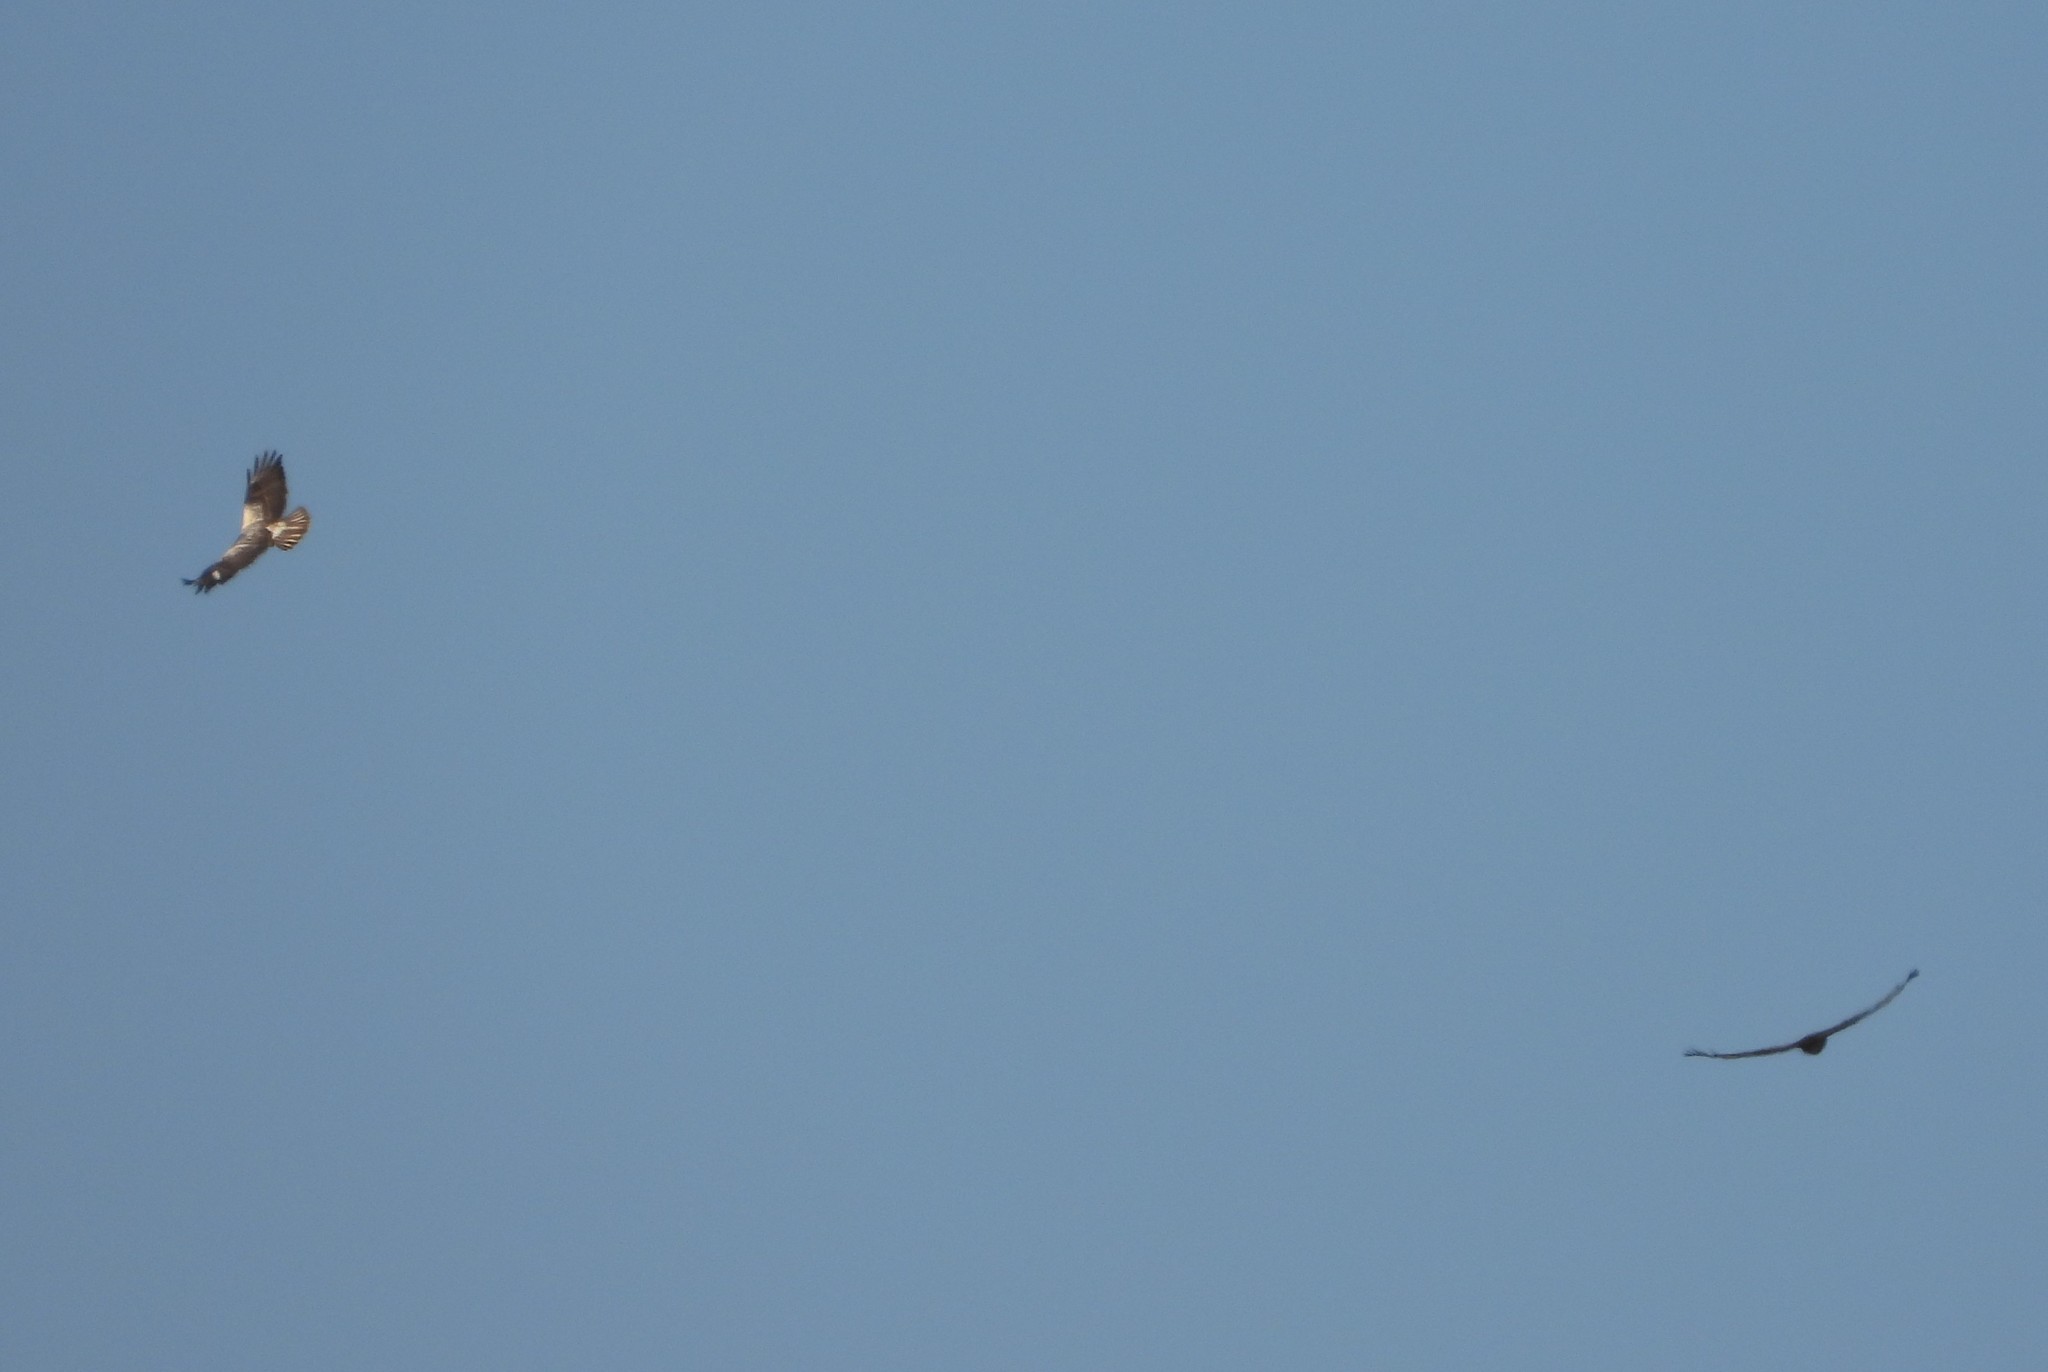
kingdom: Animalia
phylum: Chordata
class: Aves
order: Accipitriformes
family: Accipitridae
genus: Buteo
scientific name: Buteo buteo
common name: Common buzzard
